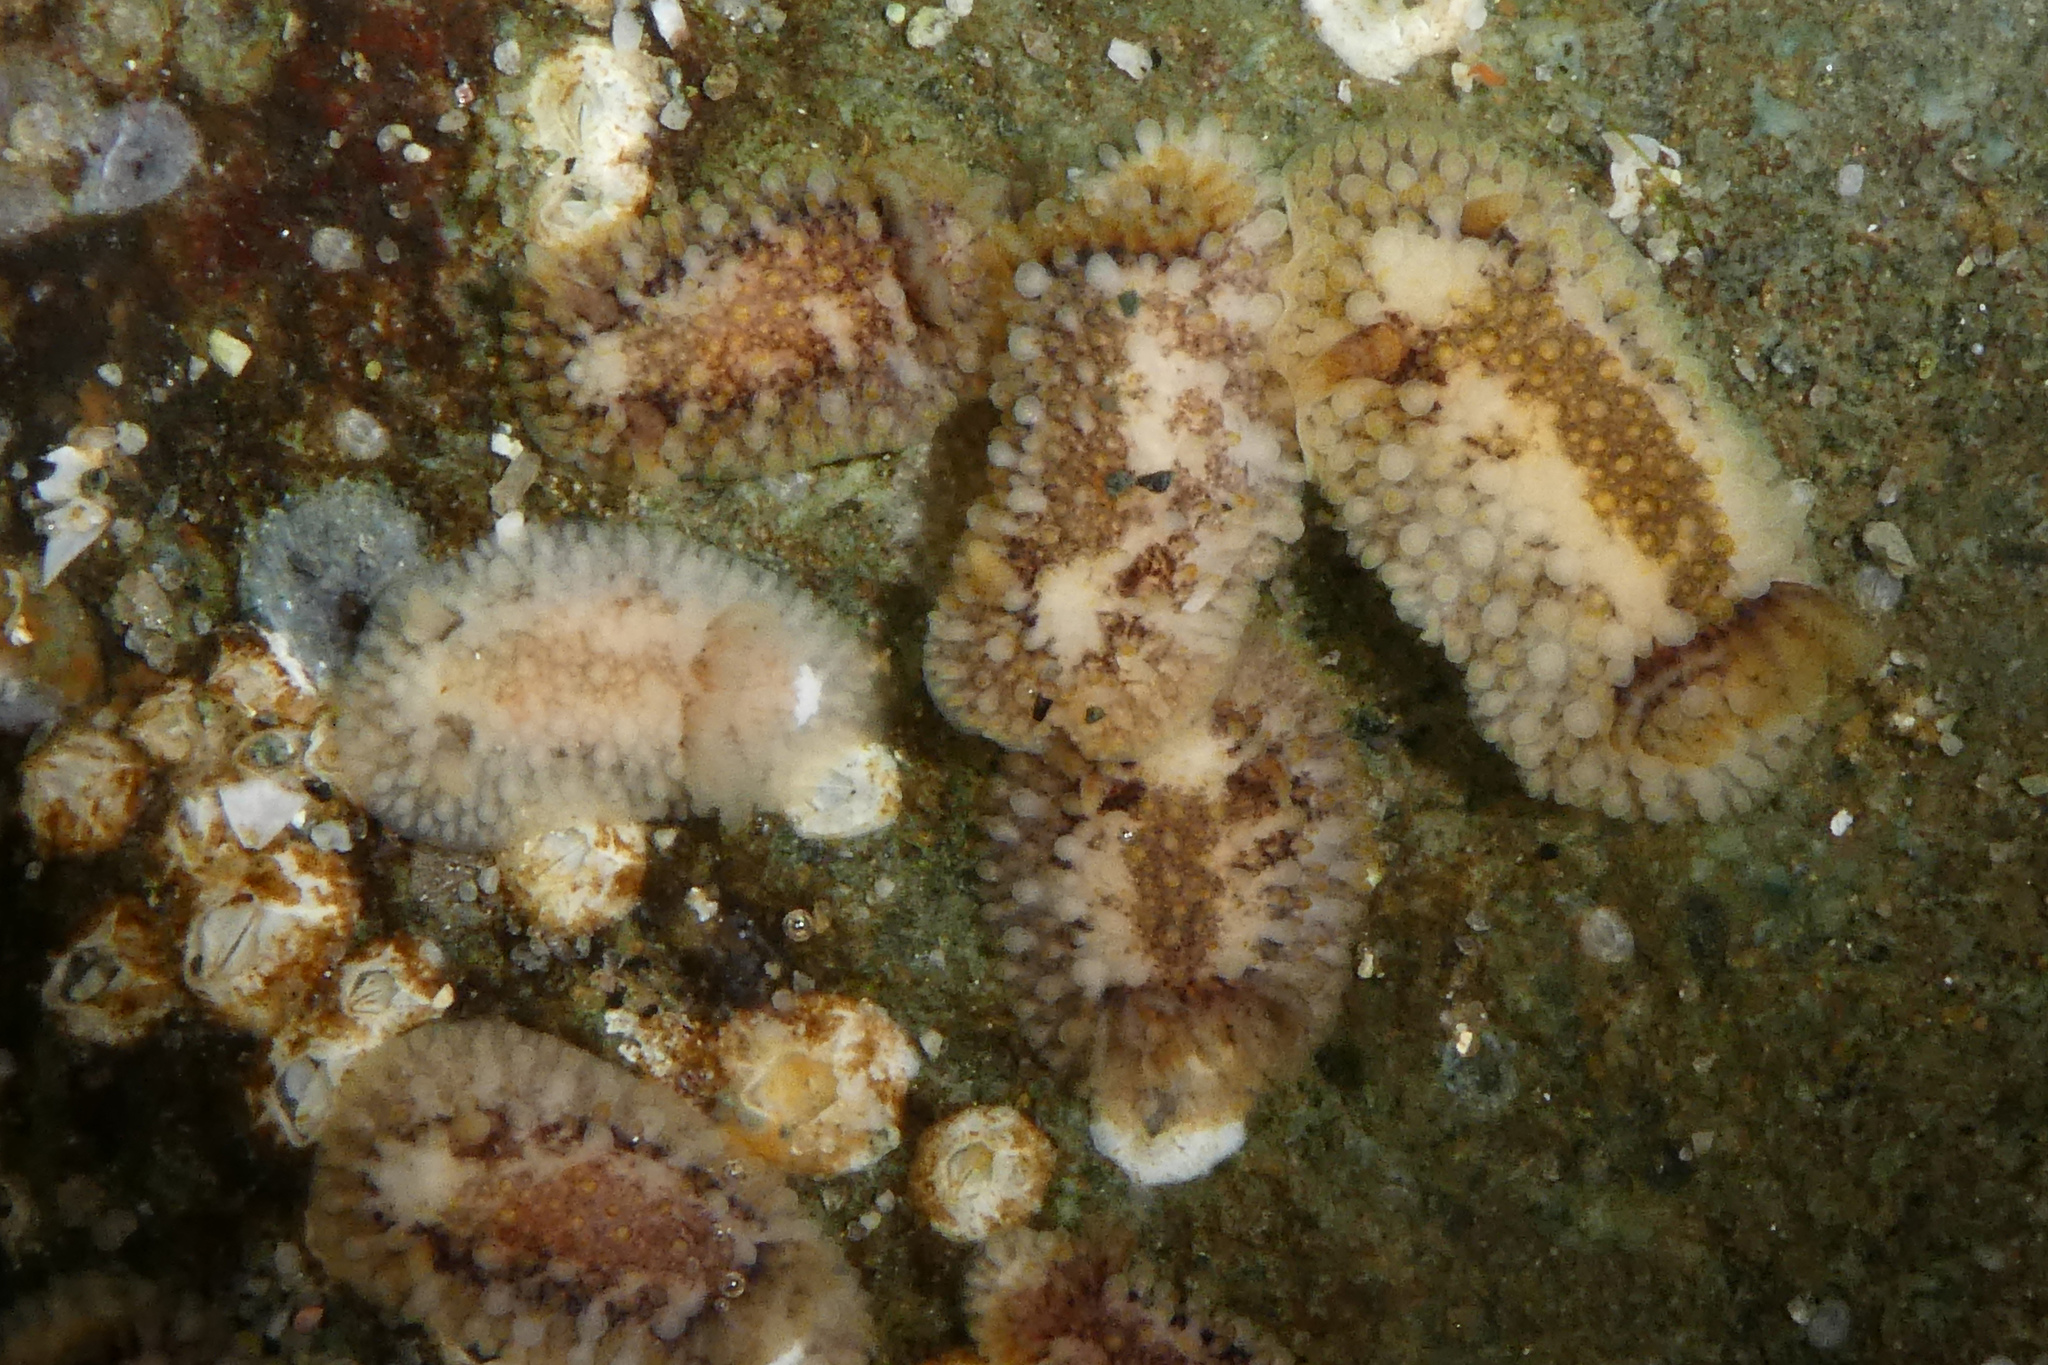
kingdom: Animalia
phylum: Mollusca
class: Gastropoda
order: Nudibranchia
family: Onchidorididae
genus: Onchidoris
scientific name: Onchidoris bilamellata
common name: Barnacle-eating onchidoris
